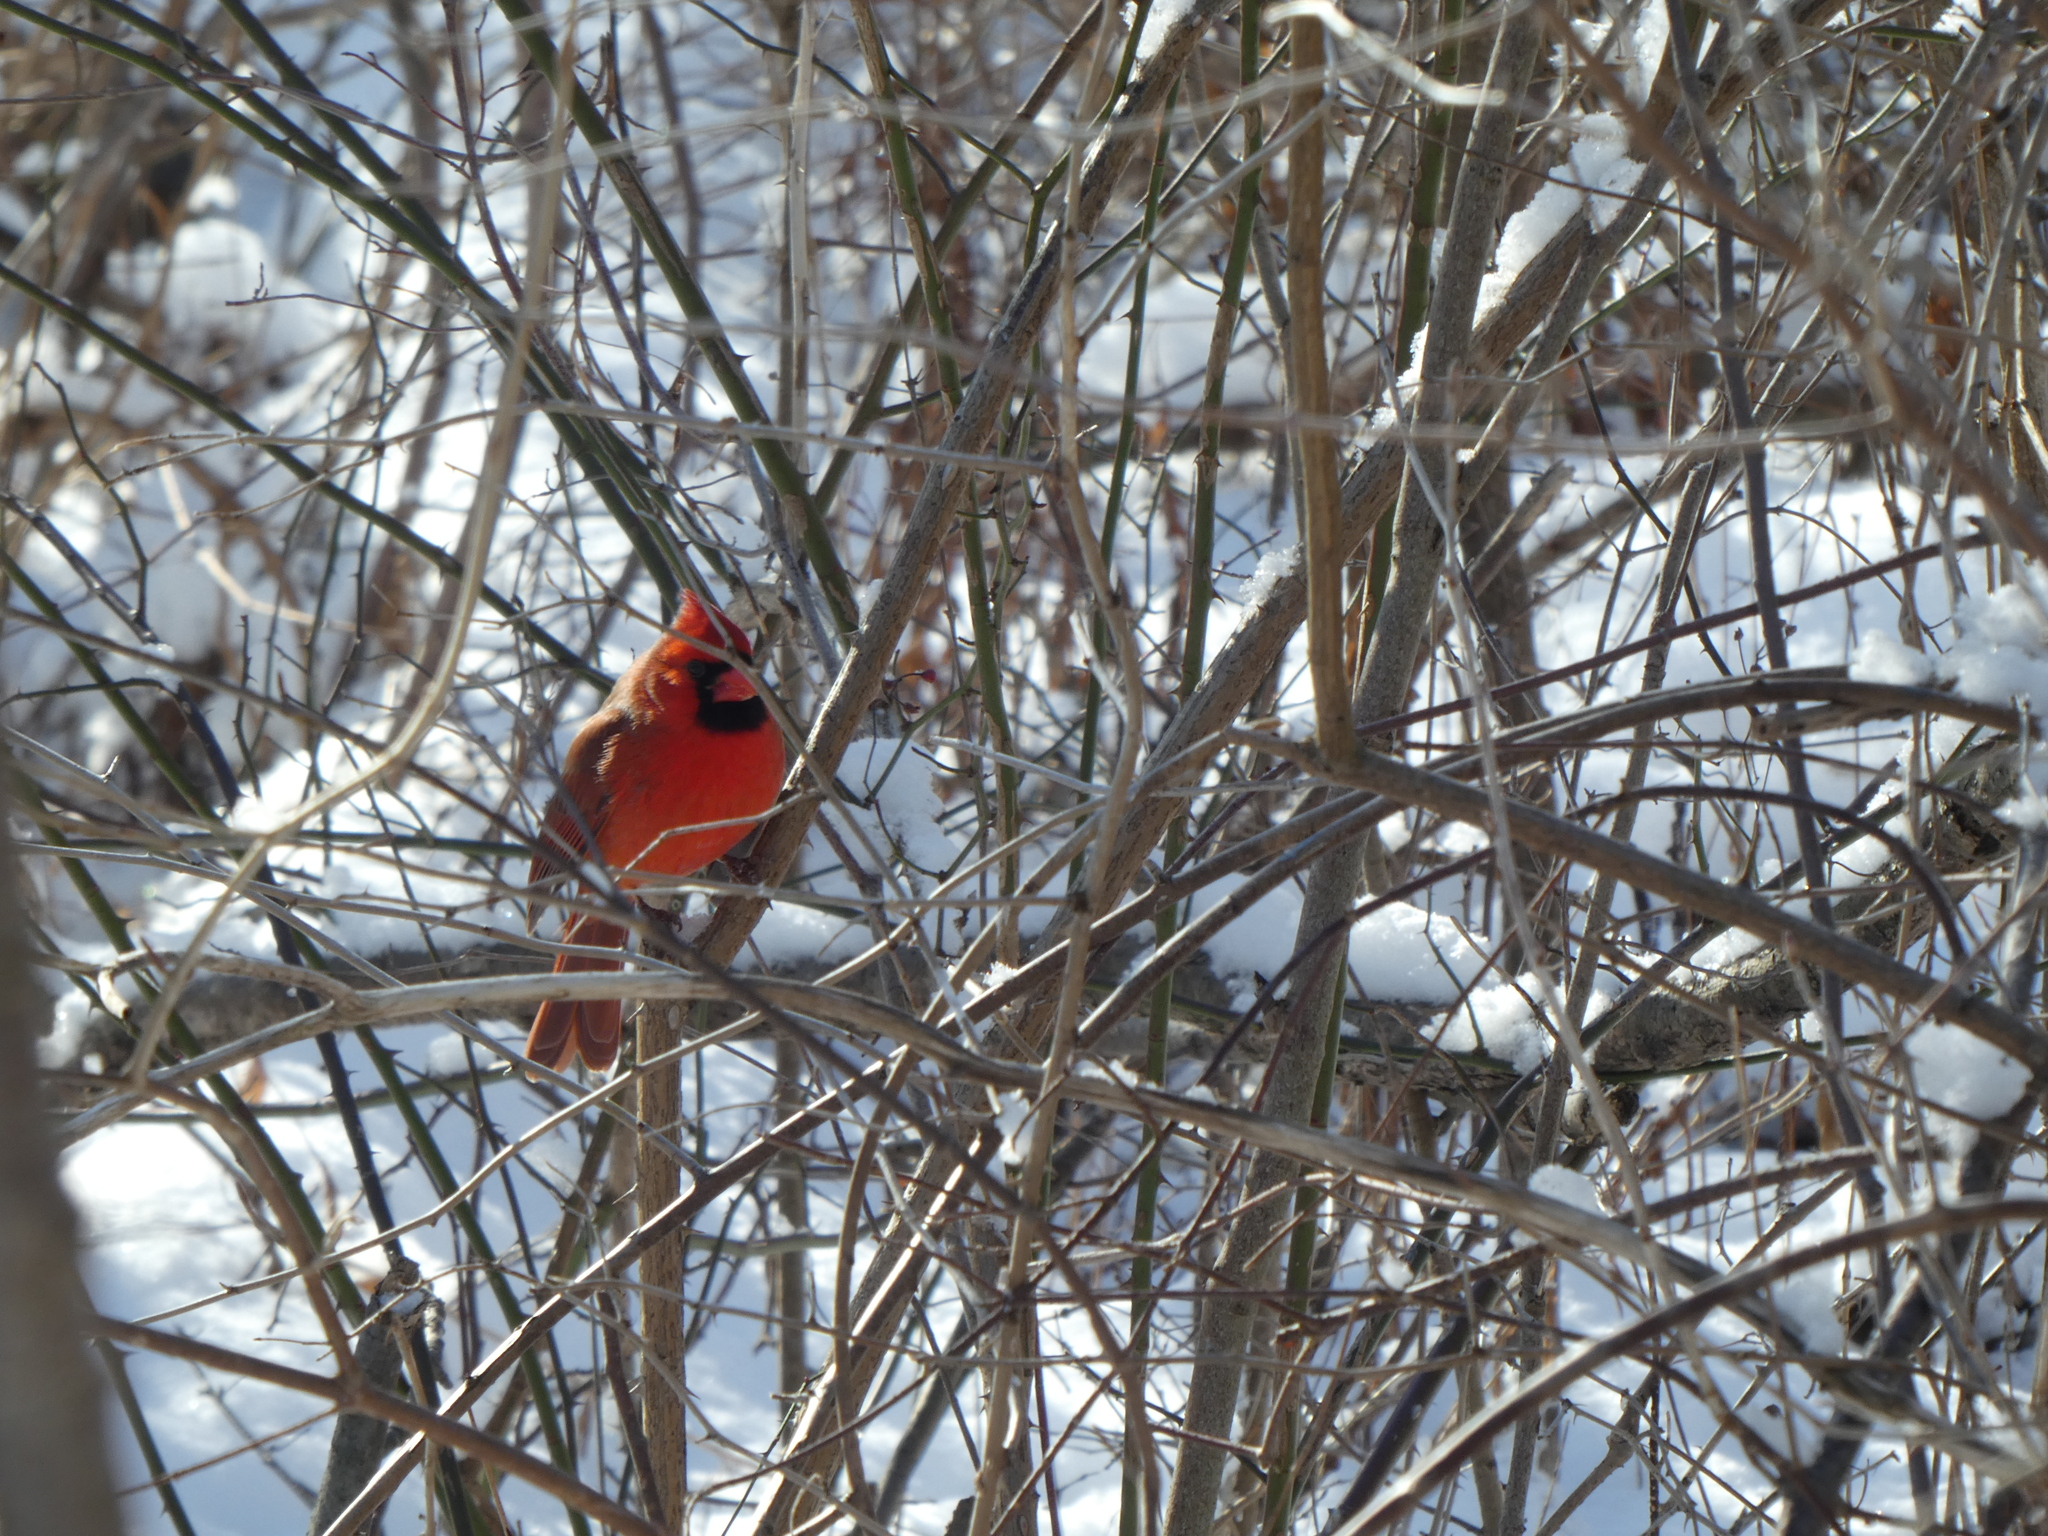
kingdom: Animalia
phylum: Chordata
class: Aves
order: Passeriformes
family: Cardinalidae
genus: Cardinalis
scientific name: Cardinalis cardinalis
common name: Northern cardinal
